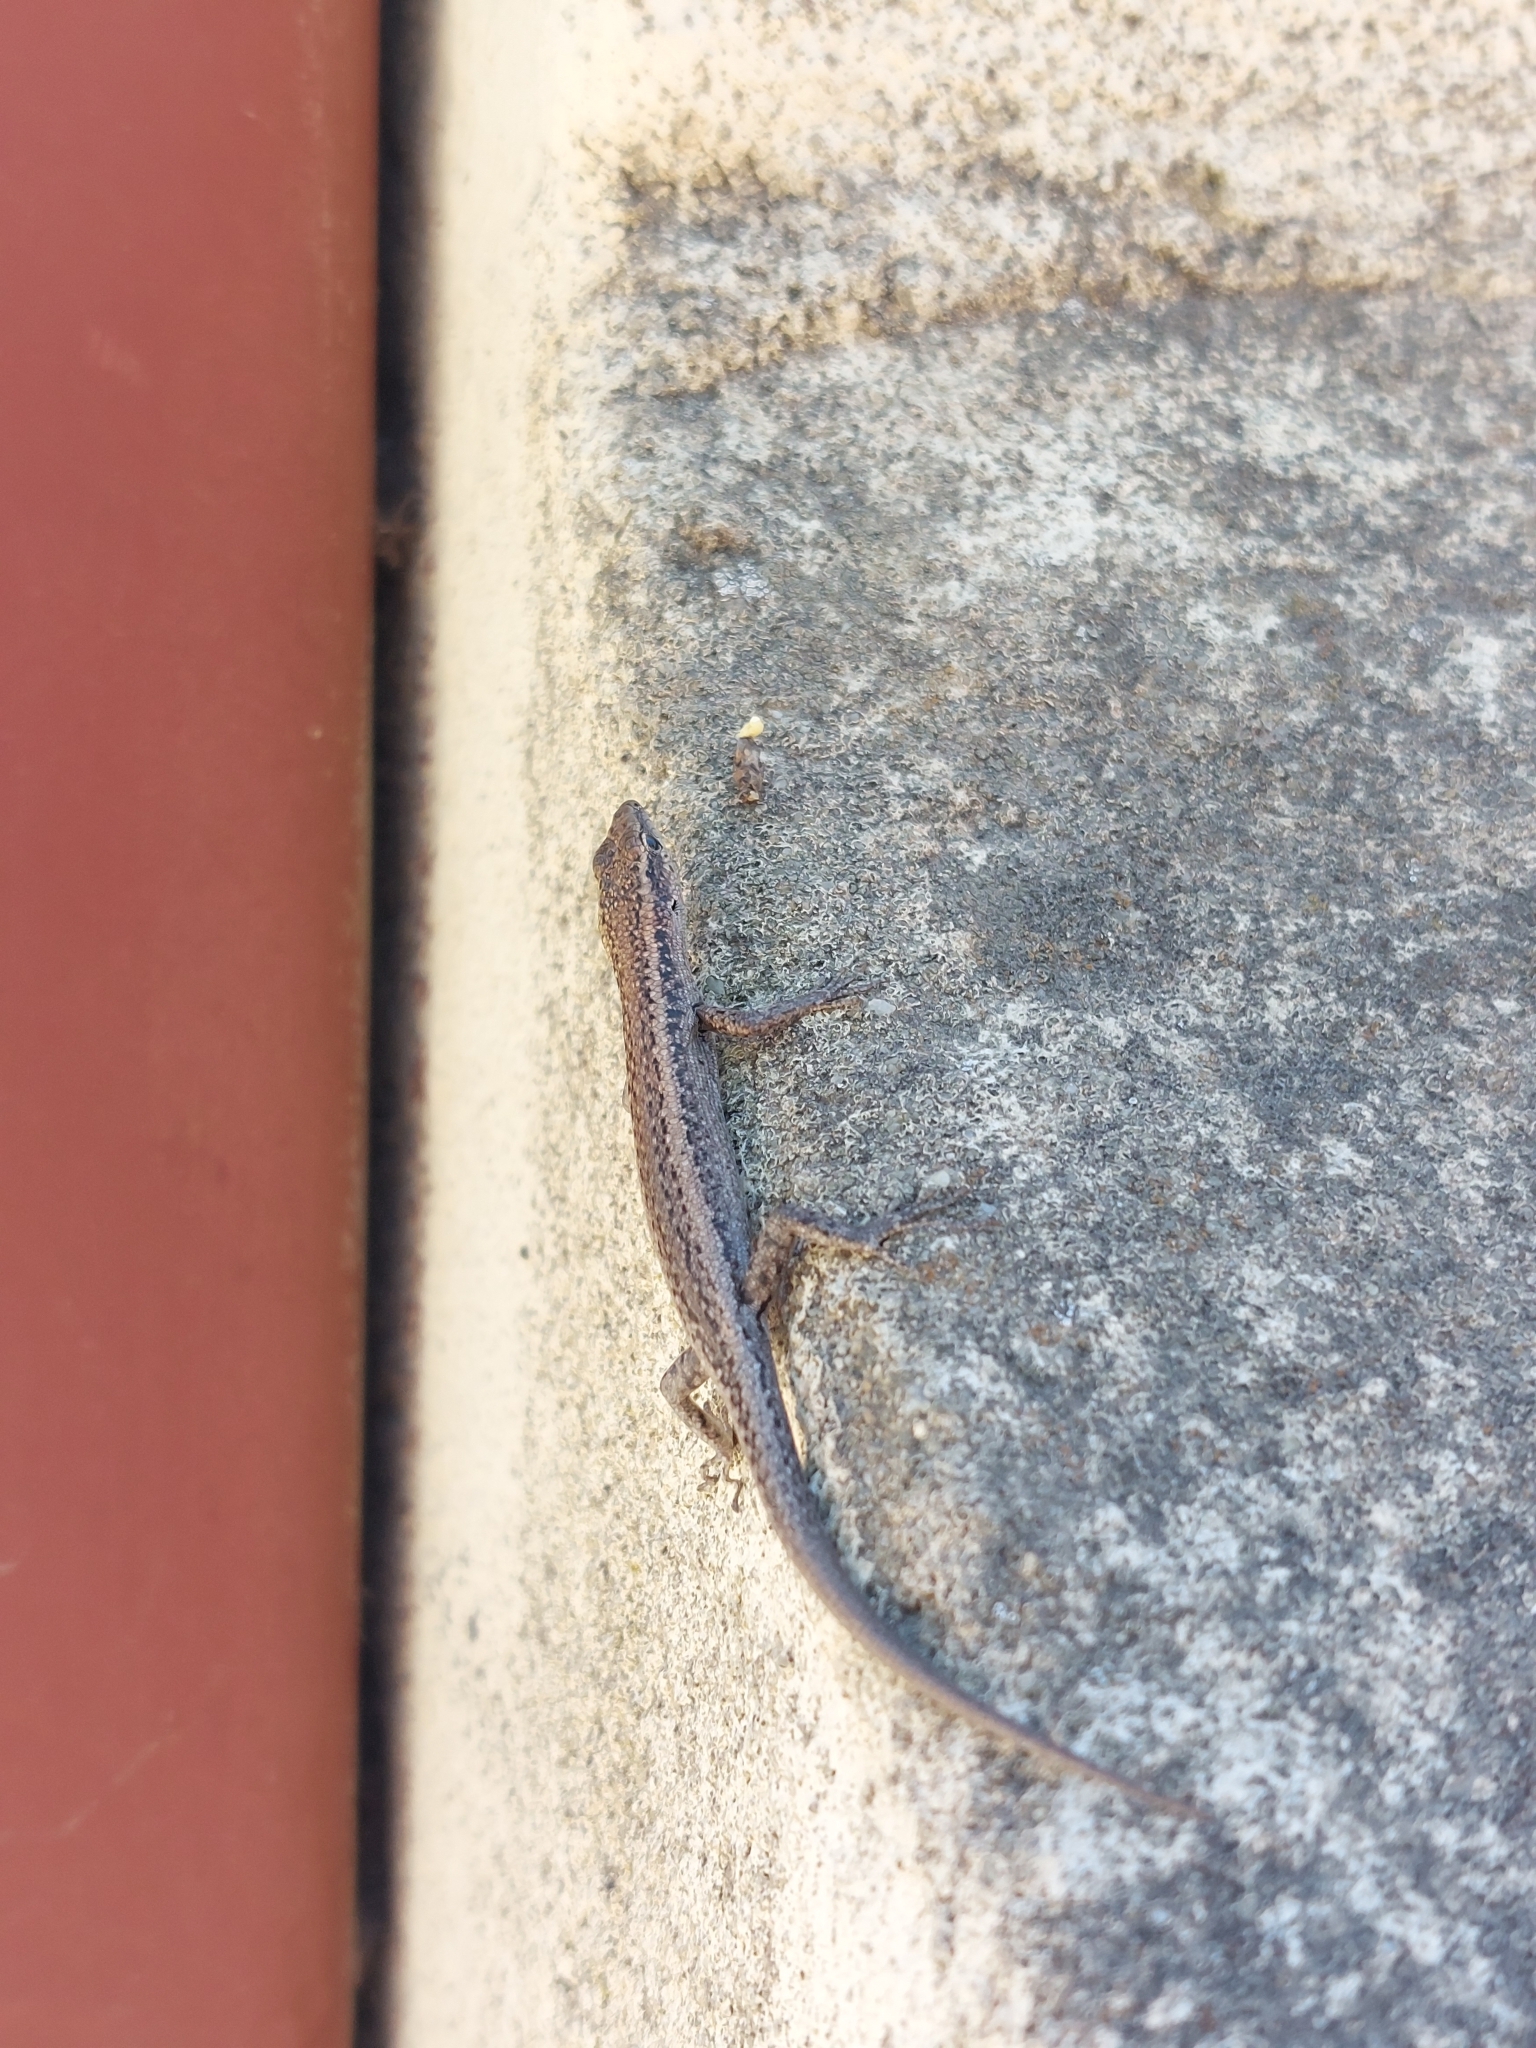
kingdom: Animalia
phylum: Chordata
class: Squamata
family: Scincidae
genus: Cryptoblepharus
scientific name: Cryptoblepharus buchananii
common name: Buchanan's snake-eyed skink
